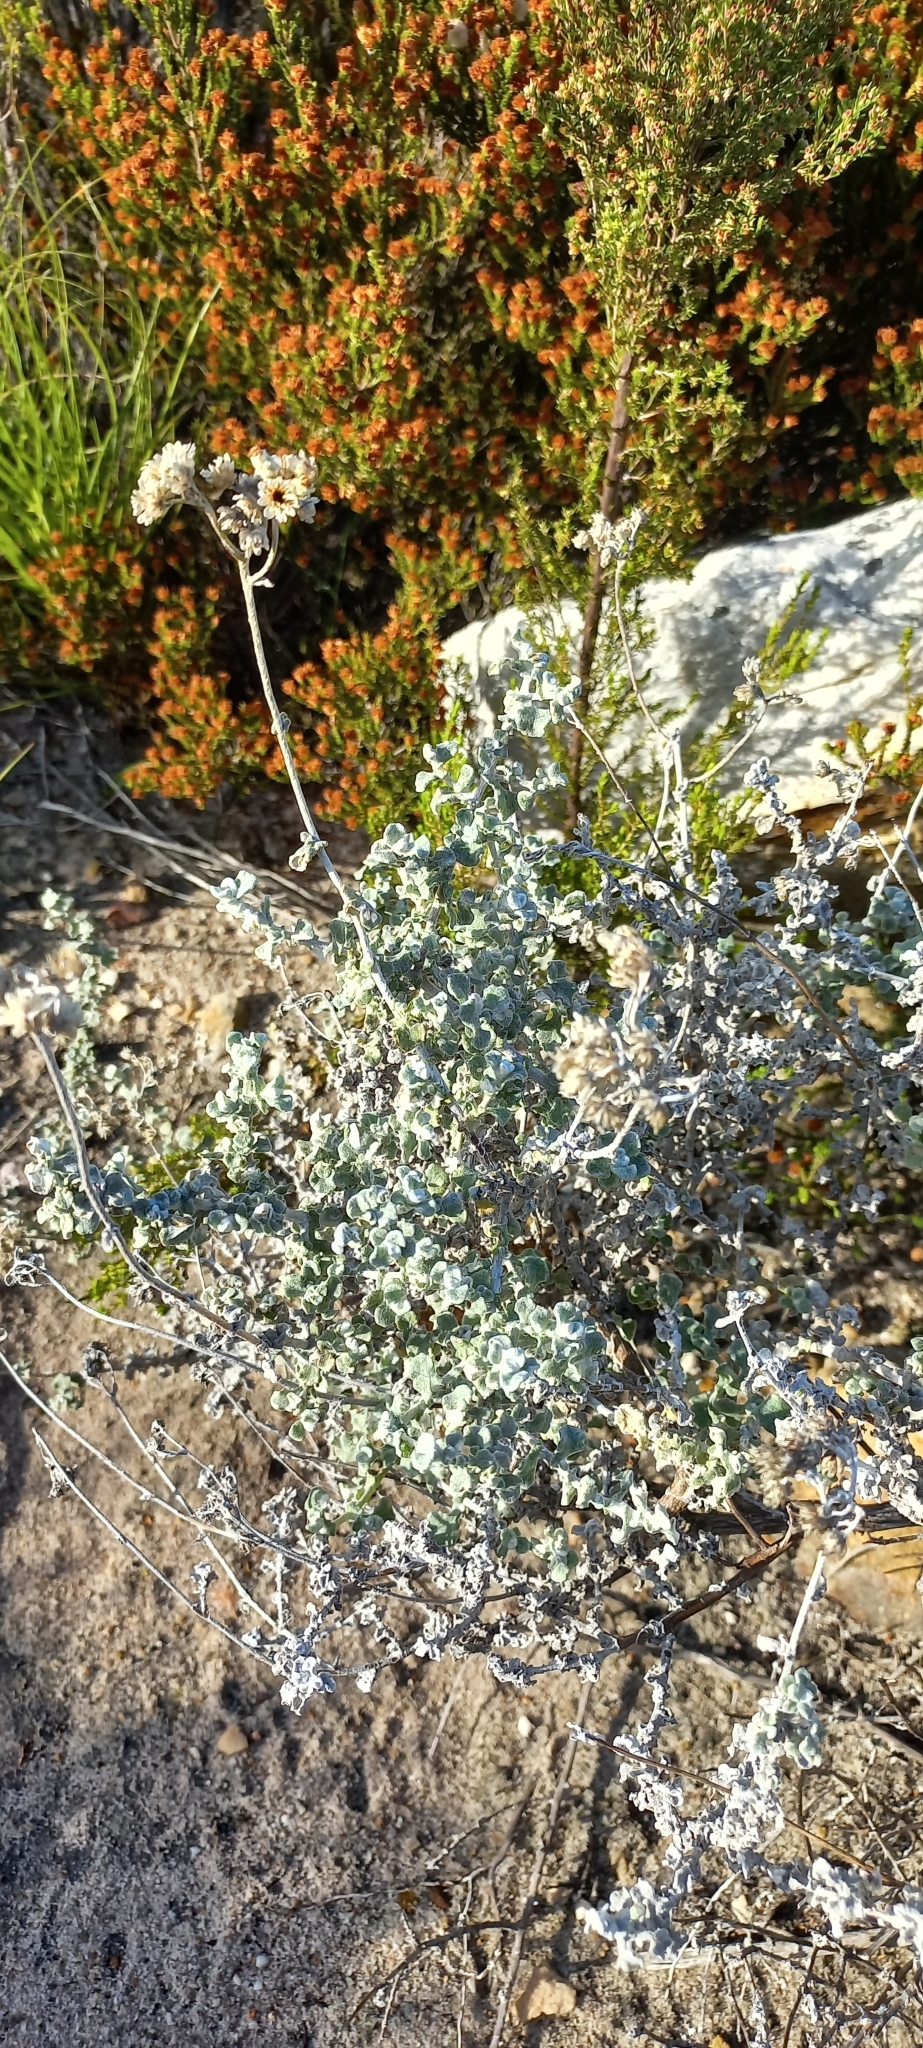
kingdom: Plantae
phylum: Tracheophyta
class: Magnoliopsida
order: Asterales
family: Asteraceae
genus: Helichrysum
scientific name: Helichrysum patulum
